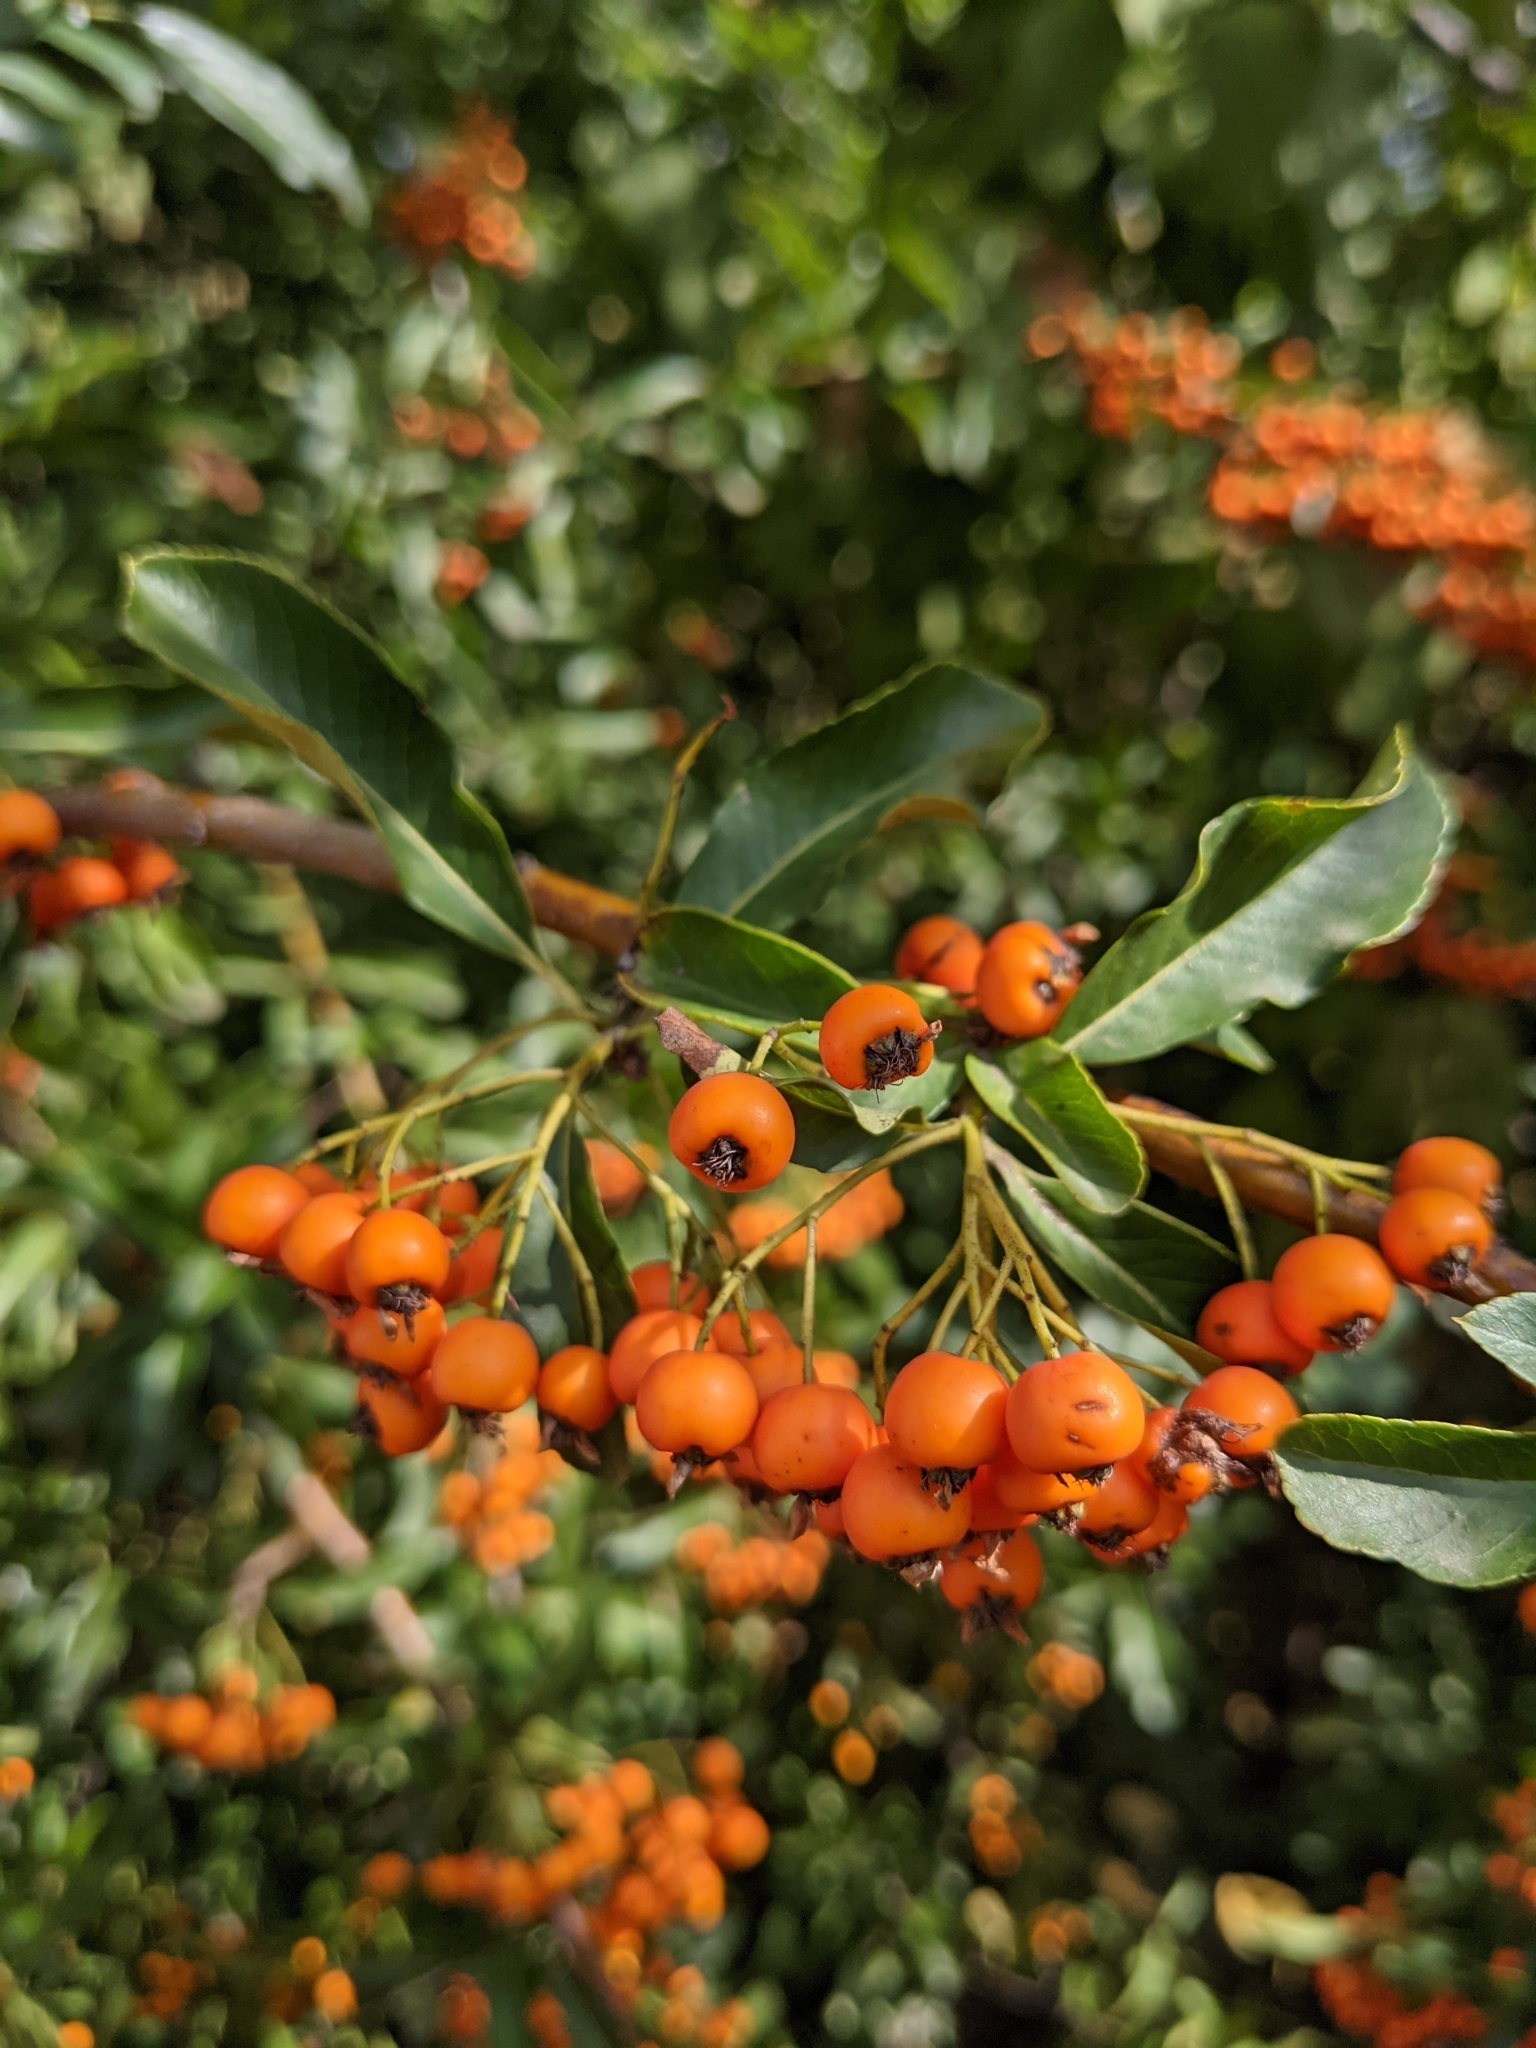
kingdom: Plantae
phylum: Tracheophyta
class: Magnoliopsida
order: Rosales
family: Rosaceae
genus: Pyracantha
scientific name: Pyracantha coccinea
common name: Firethorn
